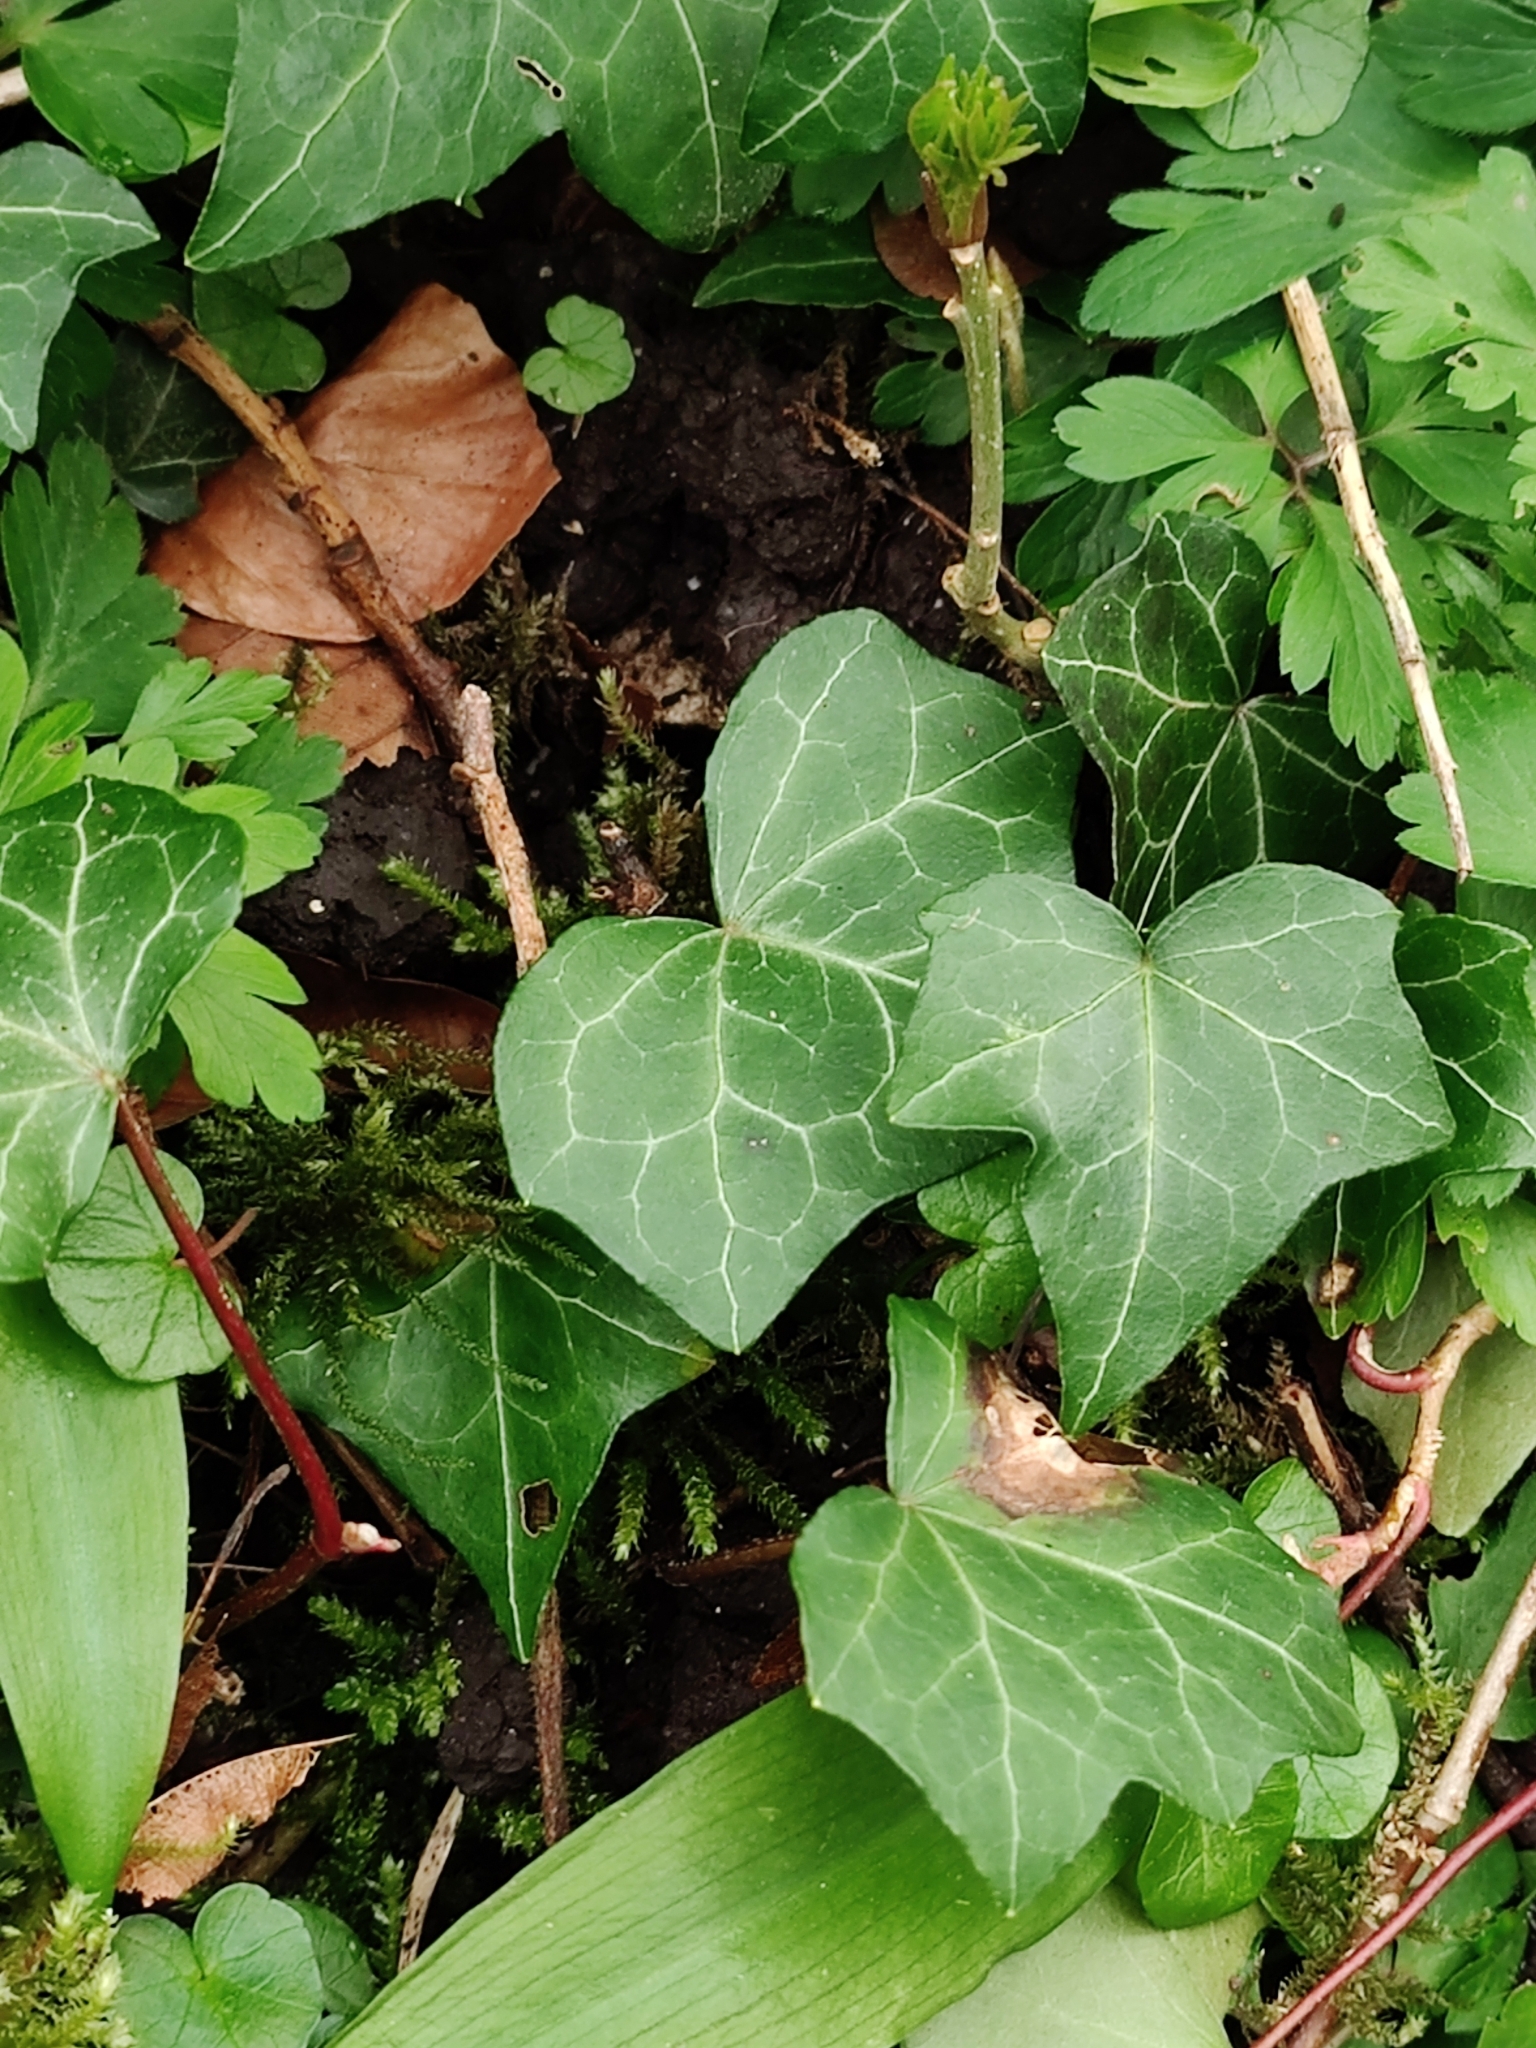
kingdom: Plantae
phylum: Tracheophyta
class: Magnoliopsida
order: Apiales
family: Araliaceae
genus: Hedera
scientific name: Hedera helix
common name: Ivy
